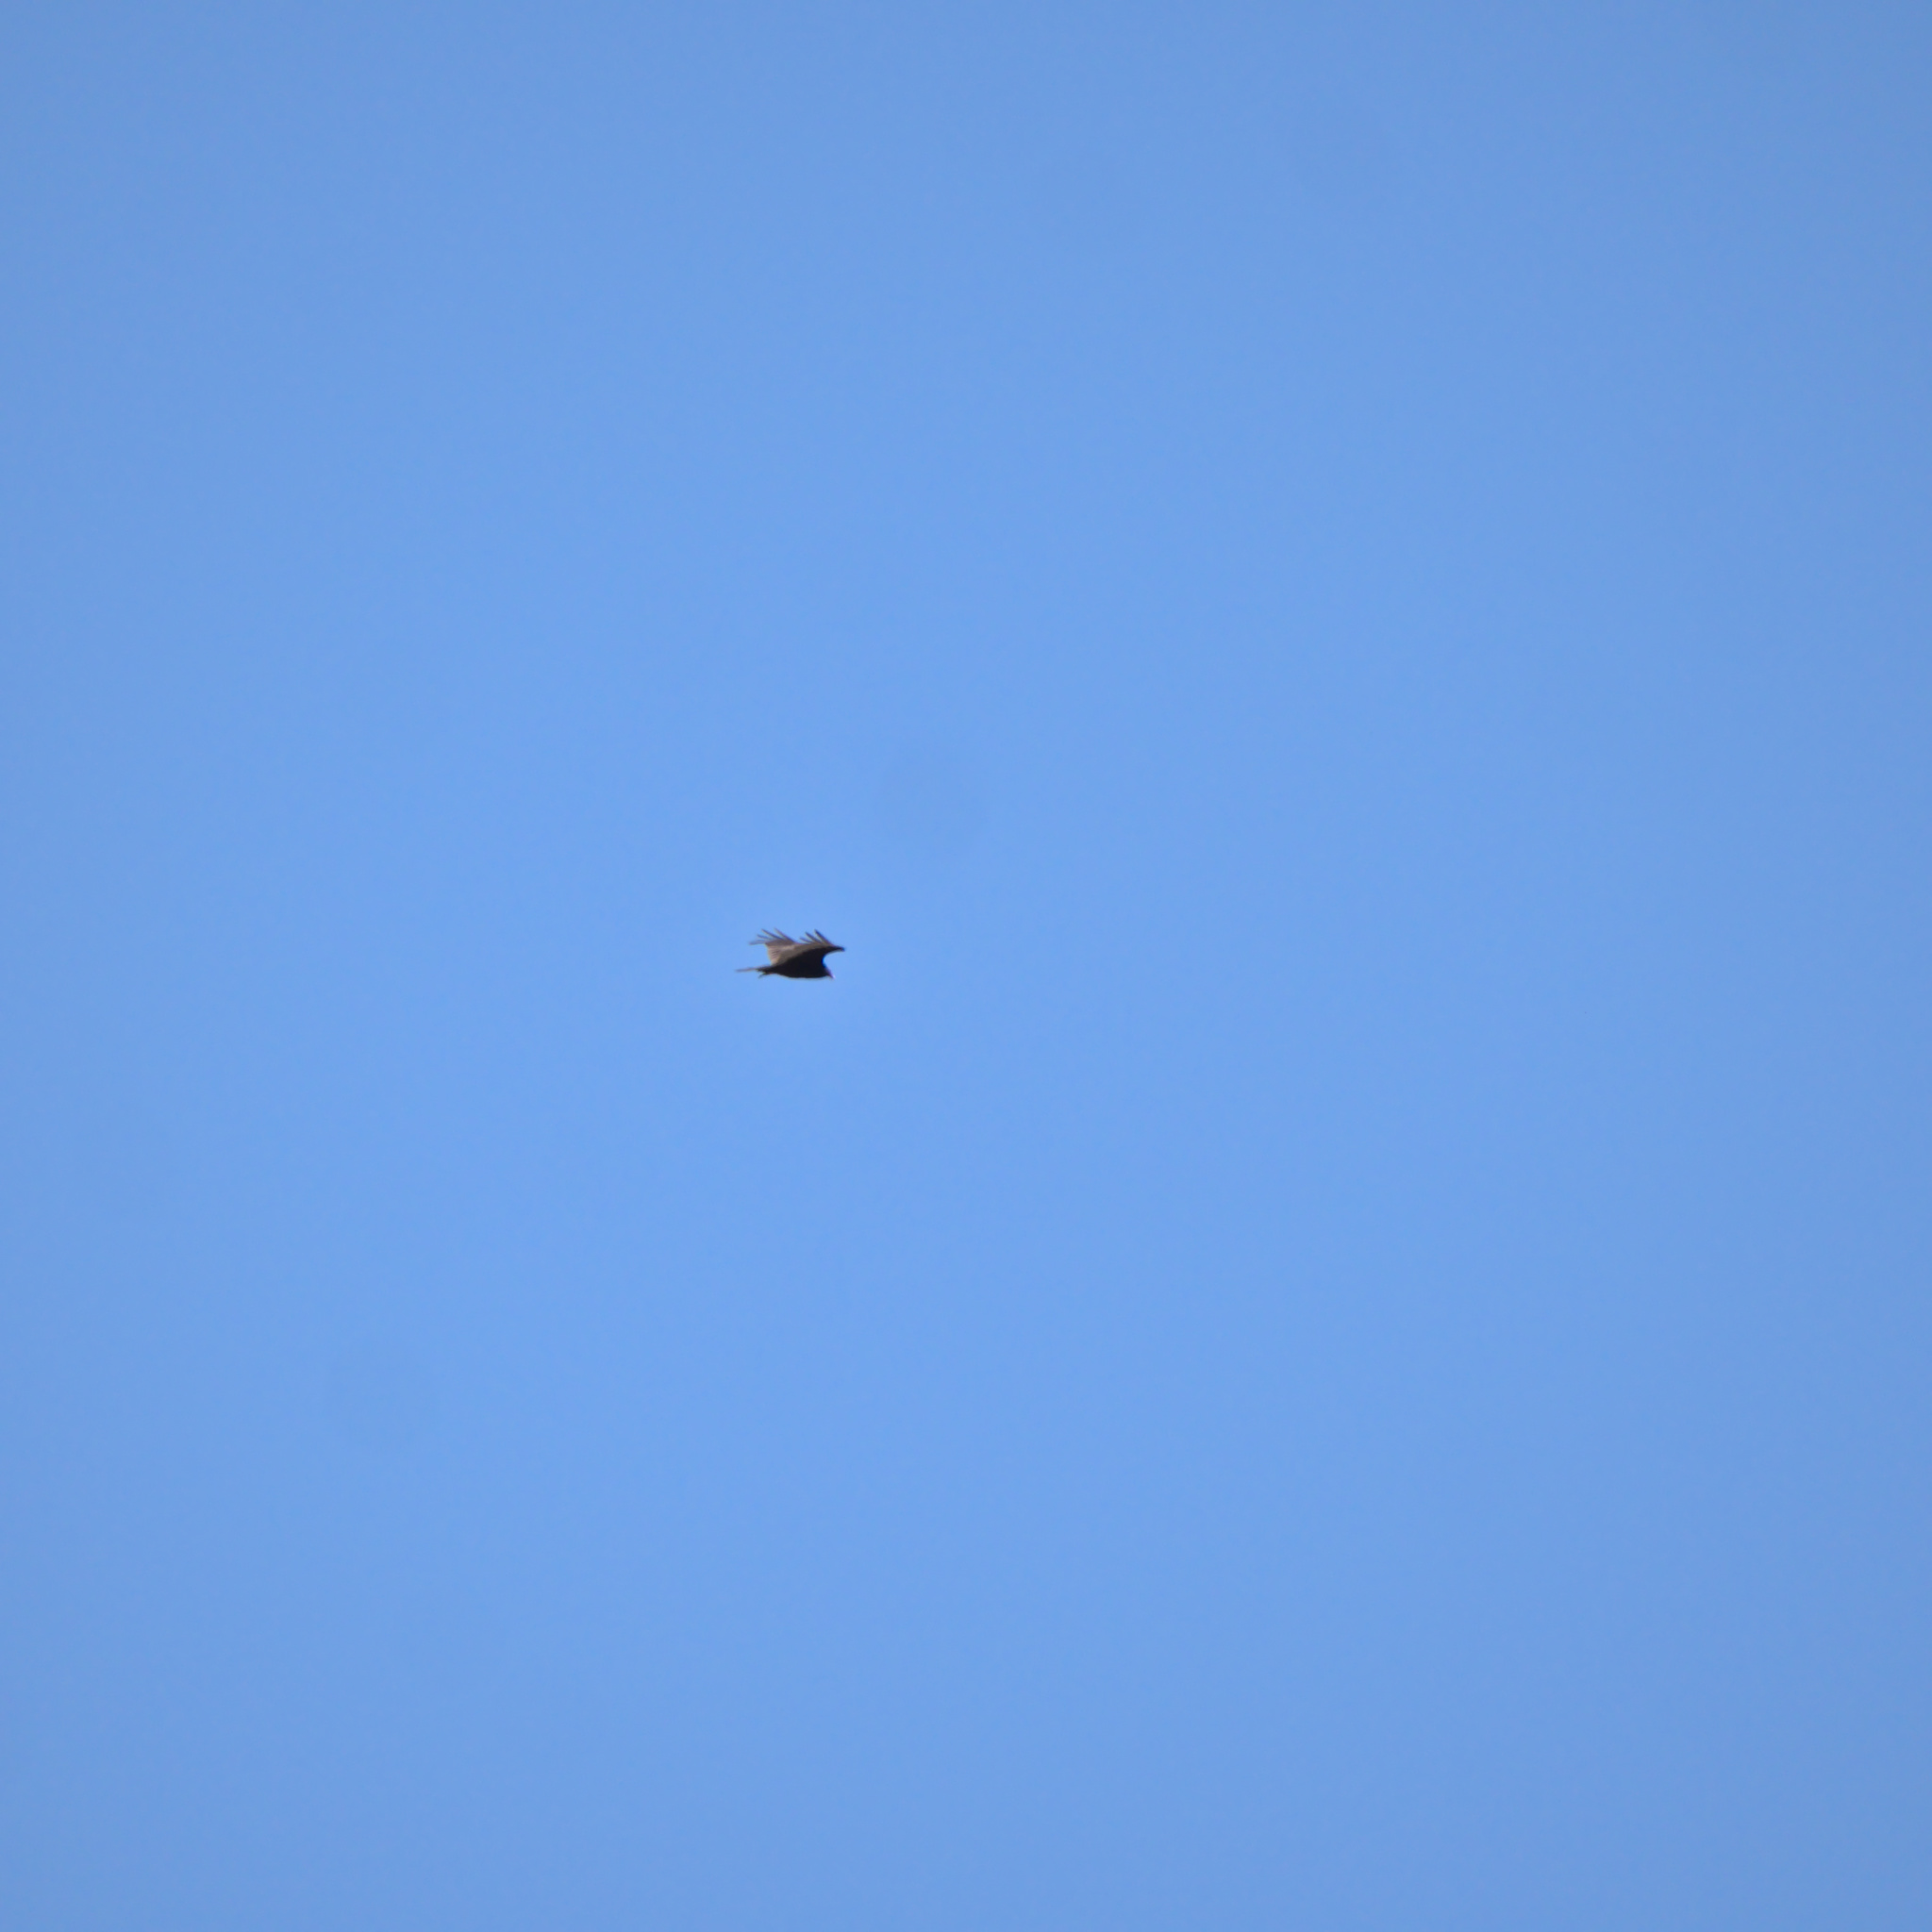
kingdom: Animalia
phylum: Chordata
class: Aves
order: Accipitriformes
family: Cathartidae
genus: Cathartes
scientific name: Cathartes aura
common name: Turkey vulture
